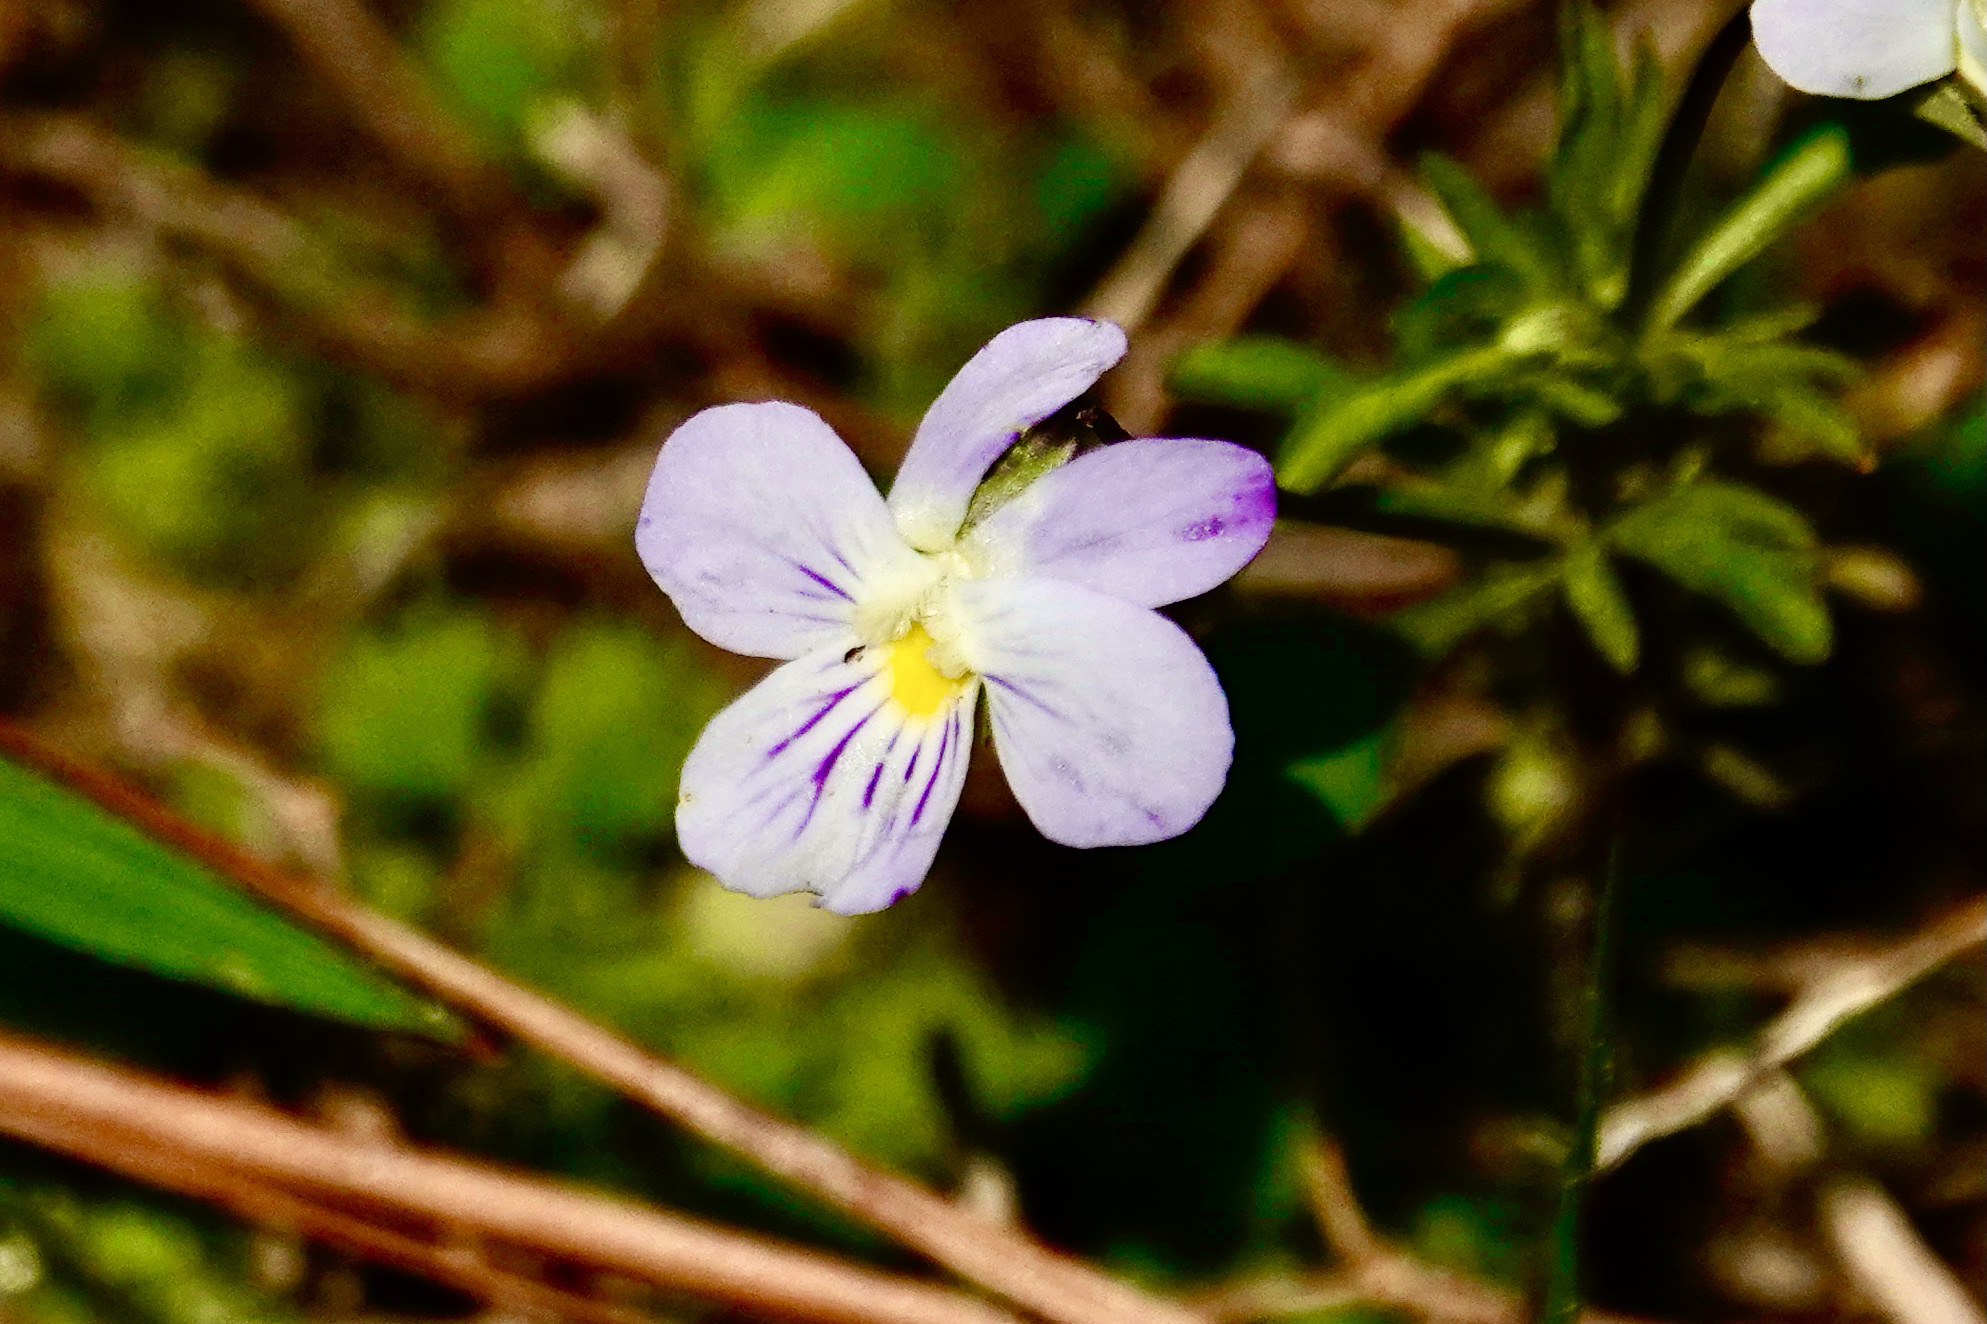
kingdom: Plantae
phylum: Tracheophyta
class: Magnoliopsida
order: Malpighiales
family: Violaceae
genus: Viola
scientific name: Viola rafinesquei
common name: American field pansy
